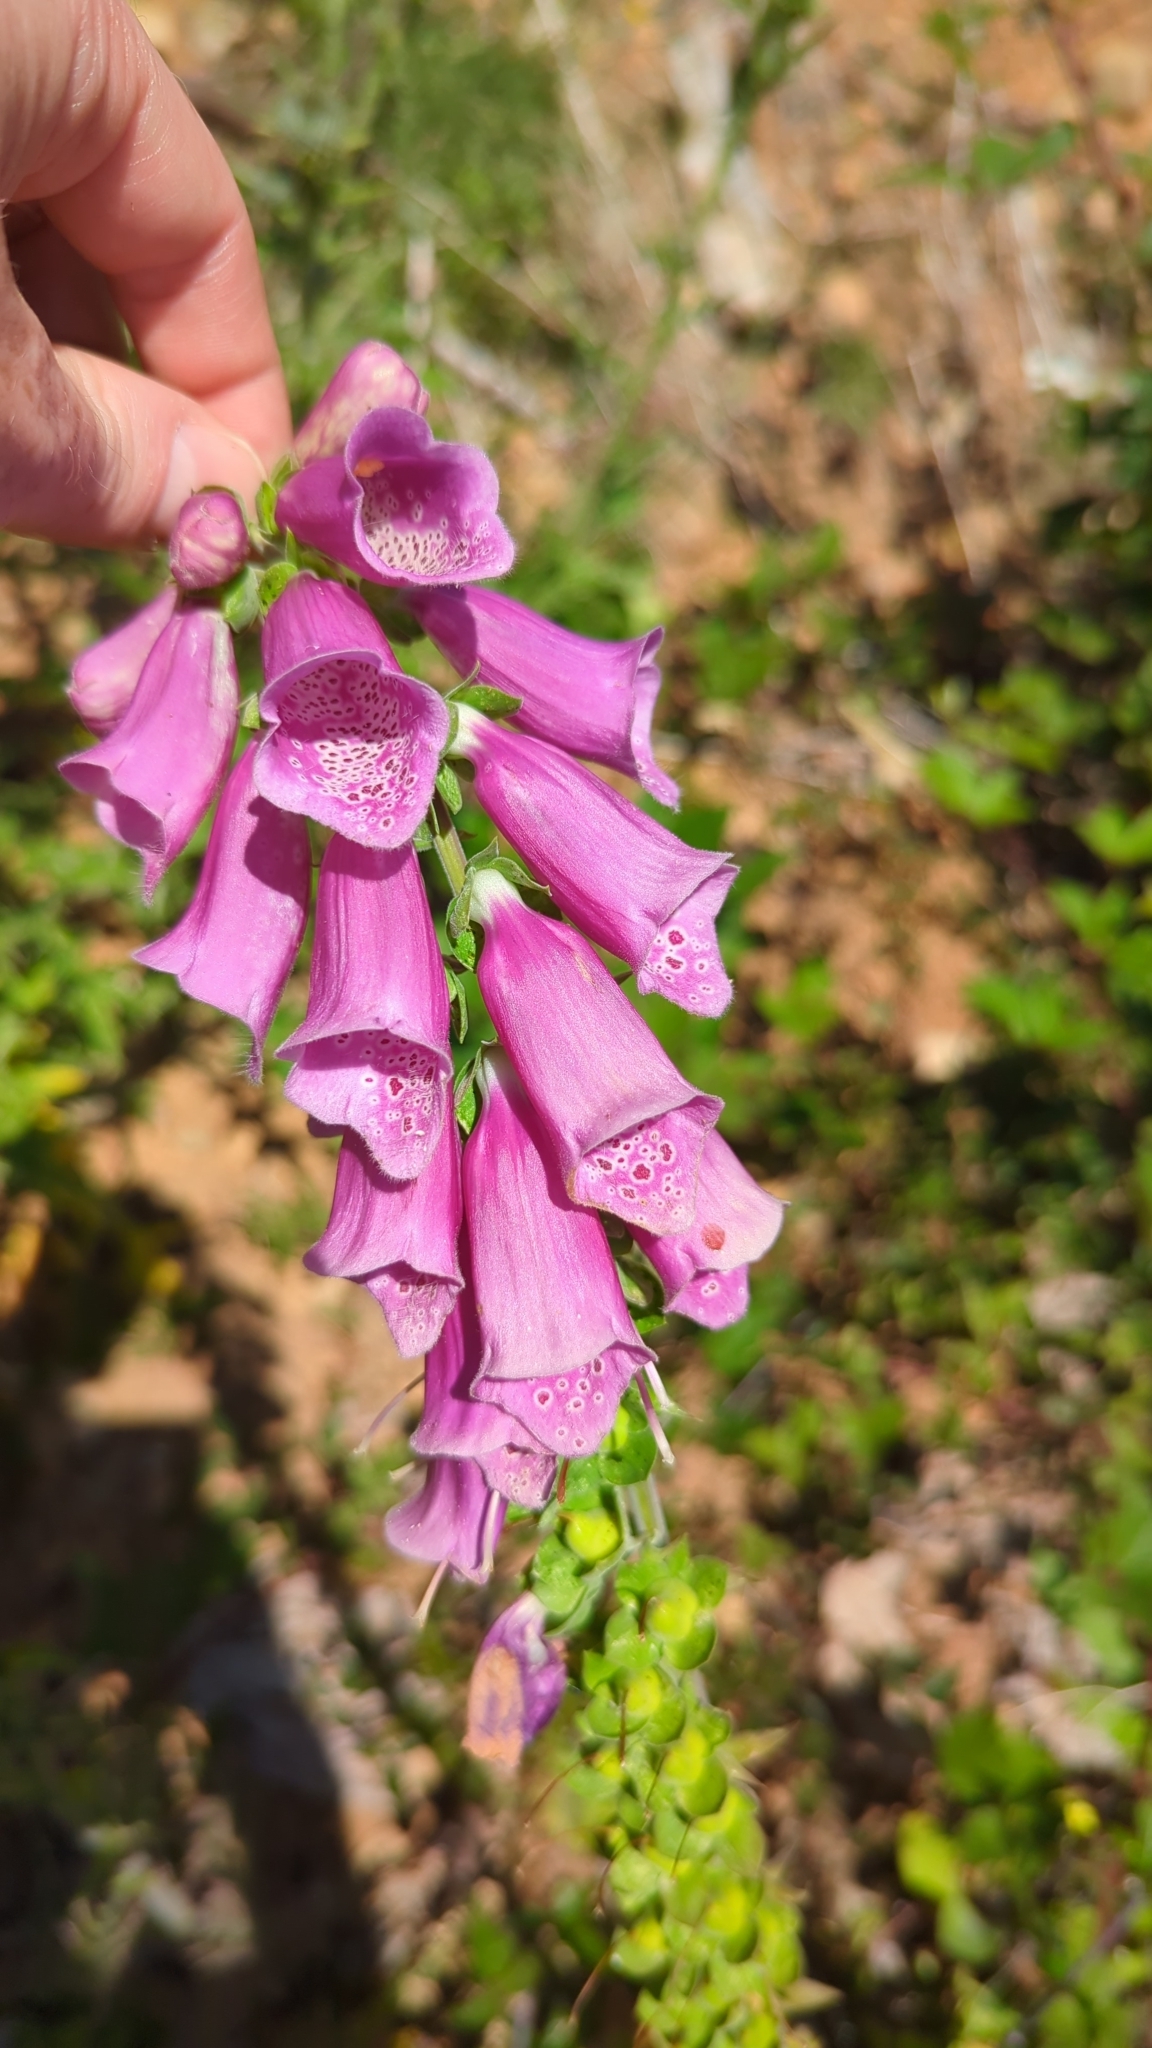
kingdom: Plantae
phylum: Tracheophyta
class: Magnoliopsida
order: Lamiales
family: Plantaginaceae
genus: Digitalis
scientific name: Digitalis purpurea
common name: Foxglove
